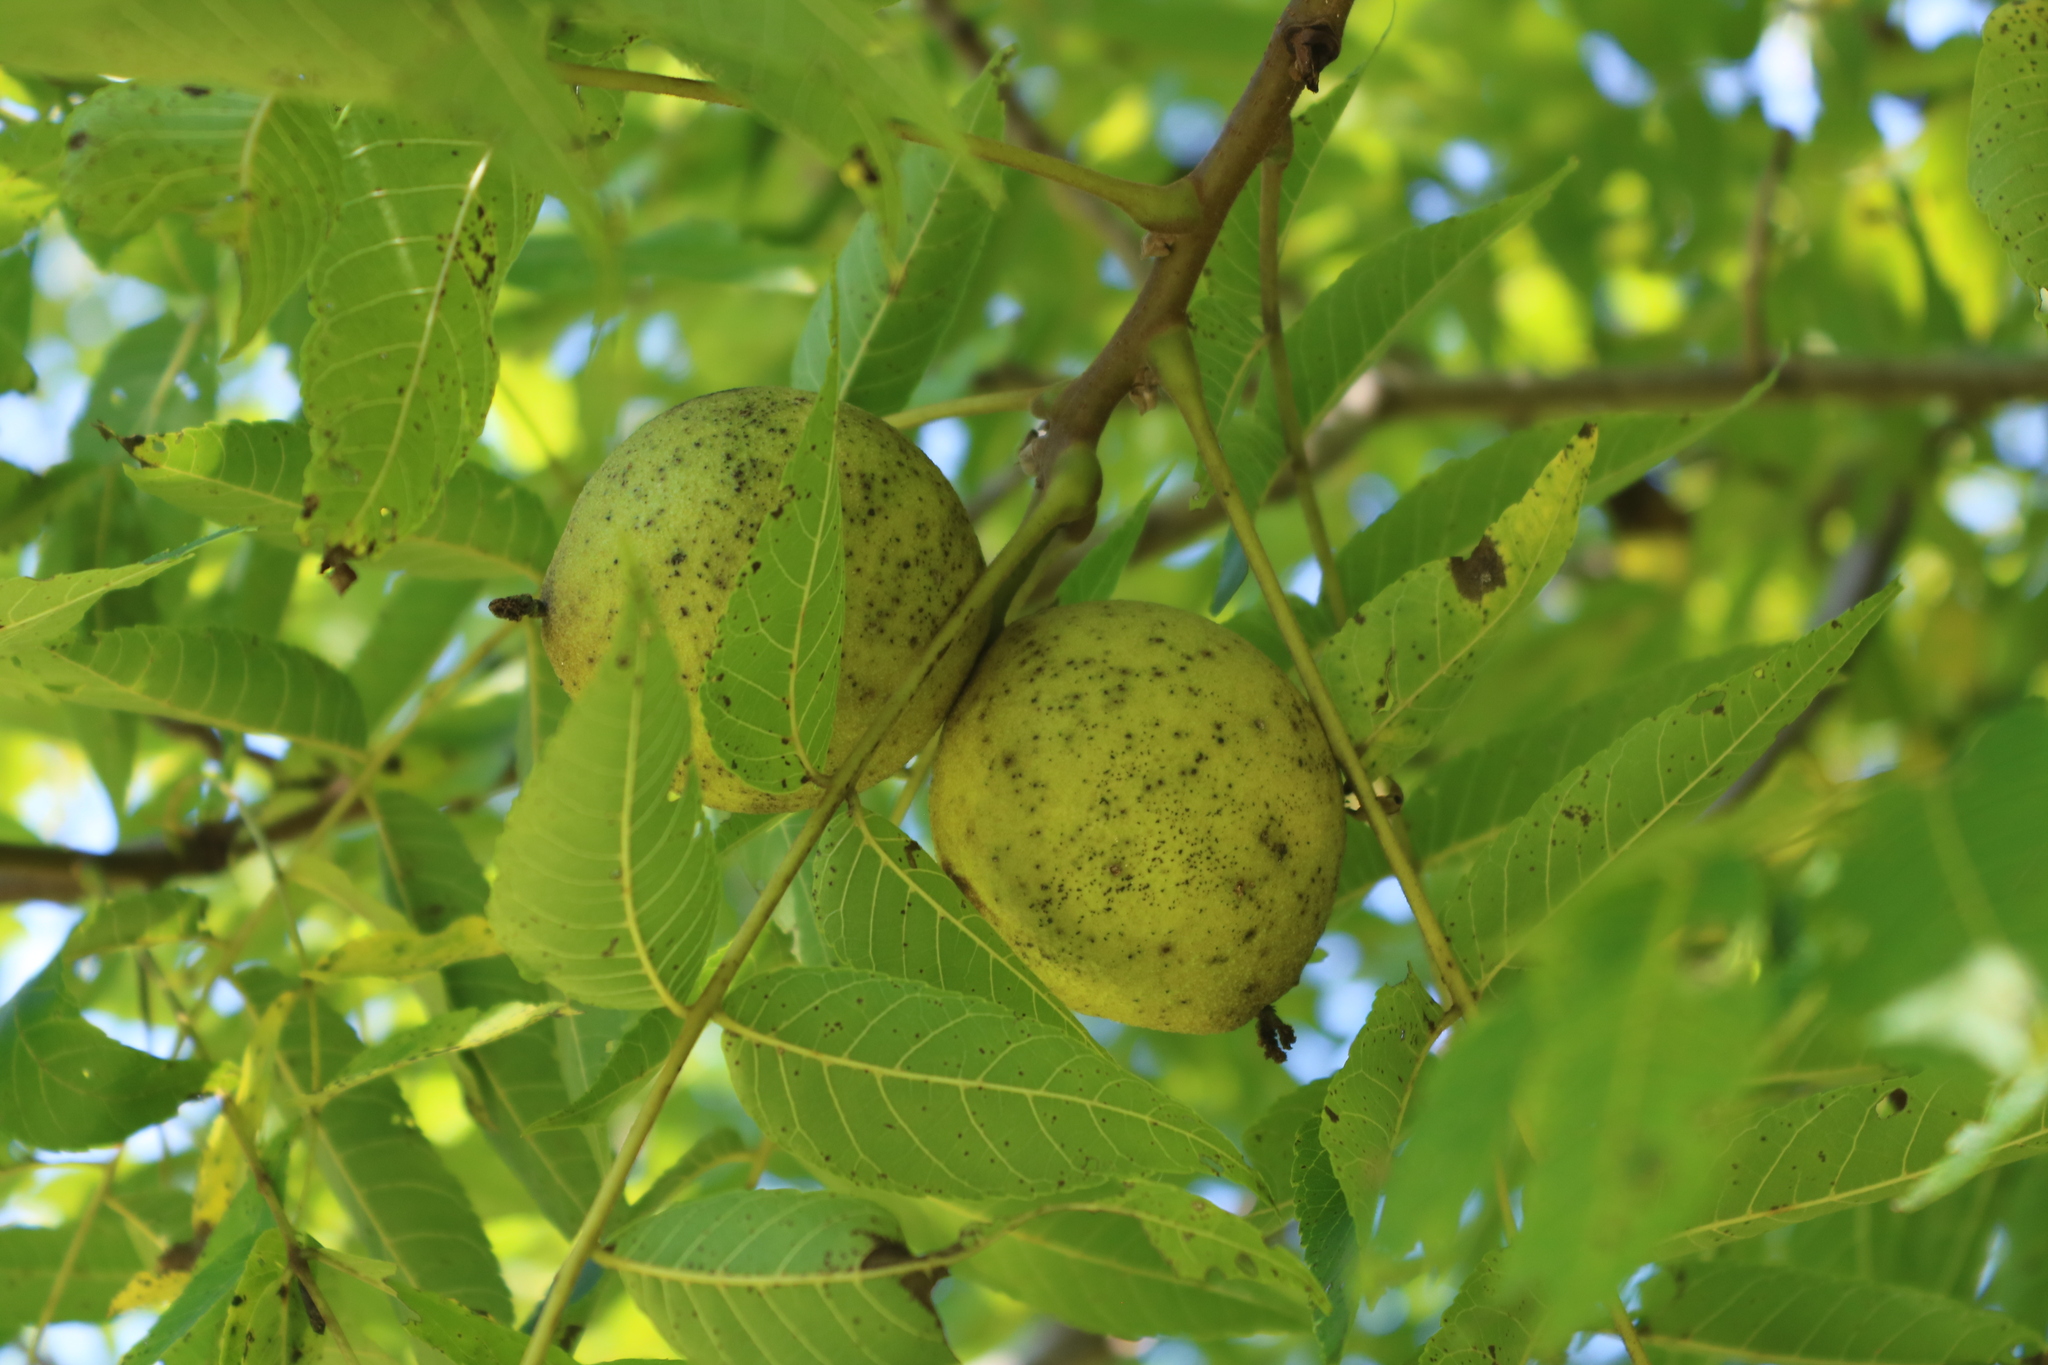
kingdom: Plantae
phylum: Tracheophyta
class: Magnoliopsida
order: Fagales
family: Juglandaceae
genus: Juglans
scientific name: Juglans nigra
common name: Black walnut
